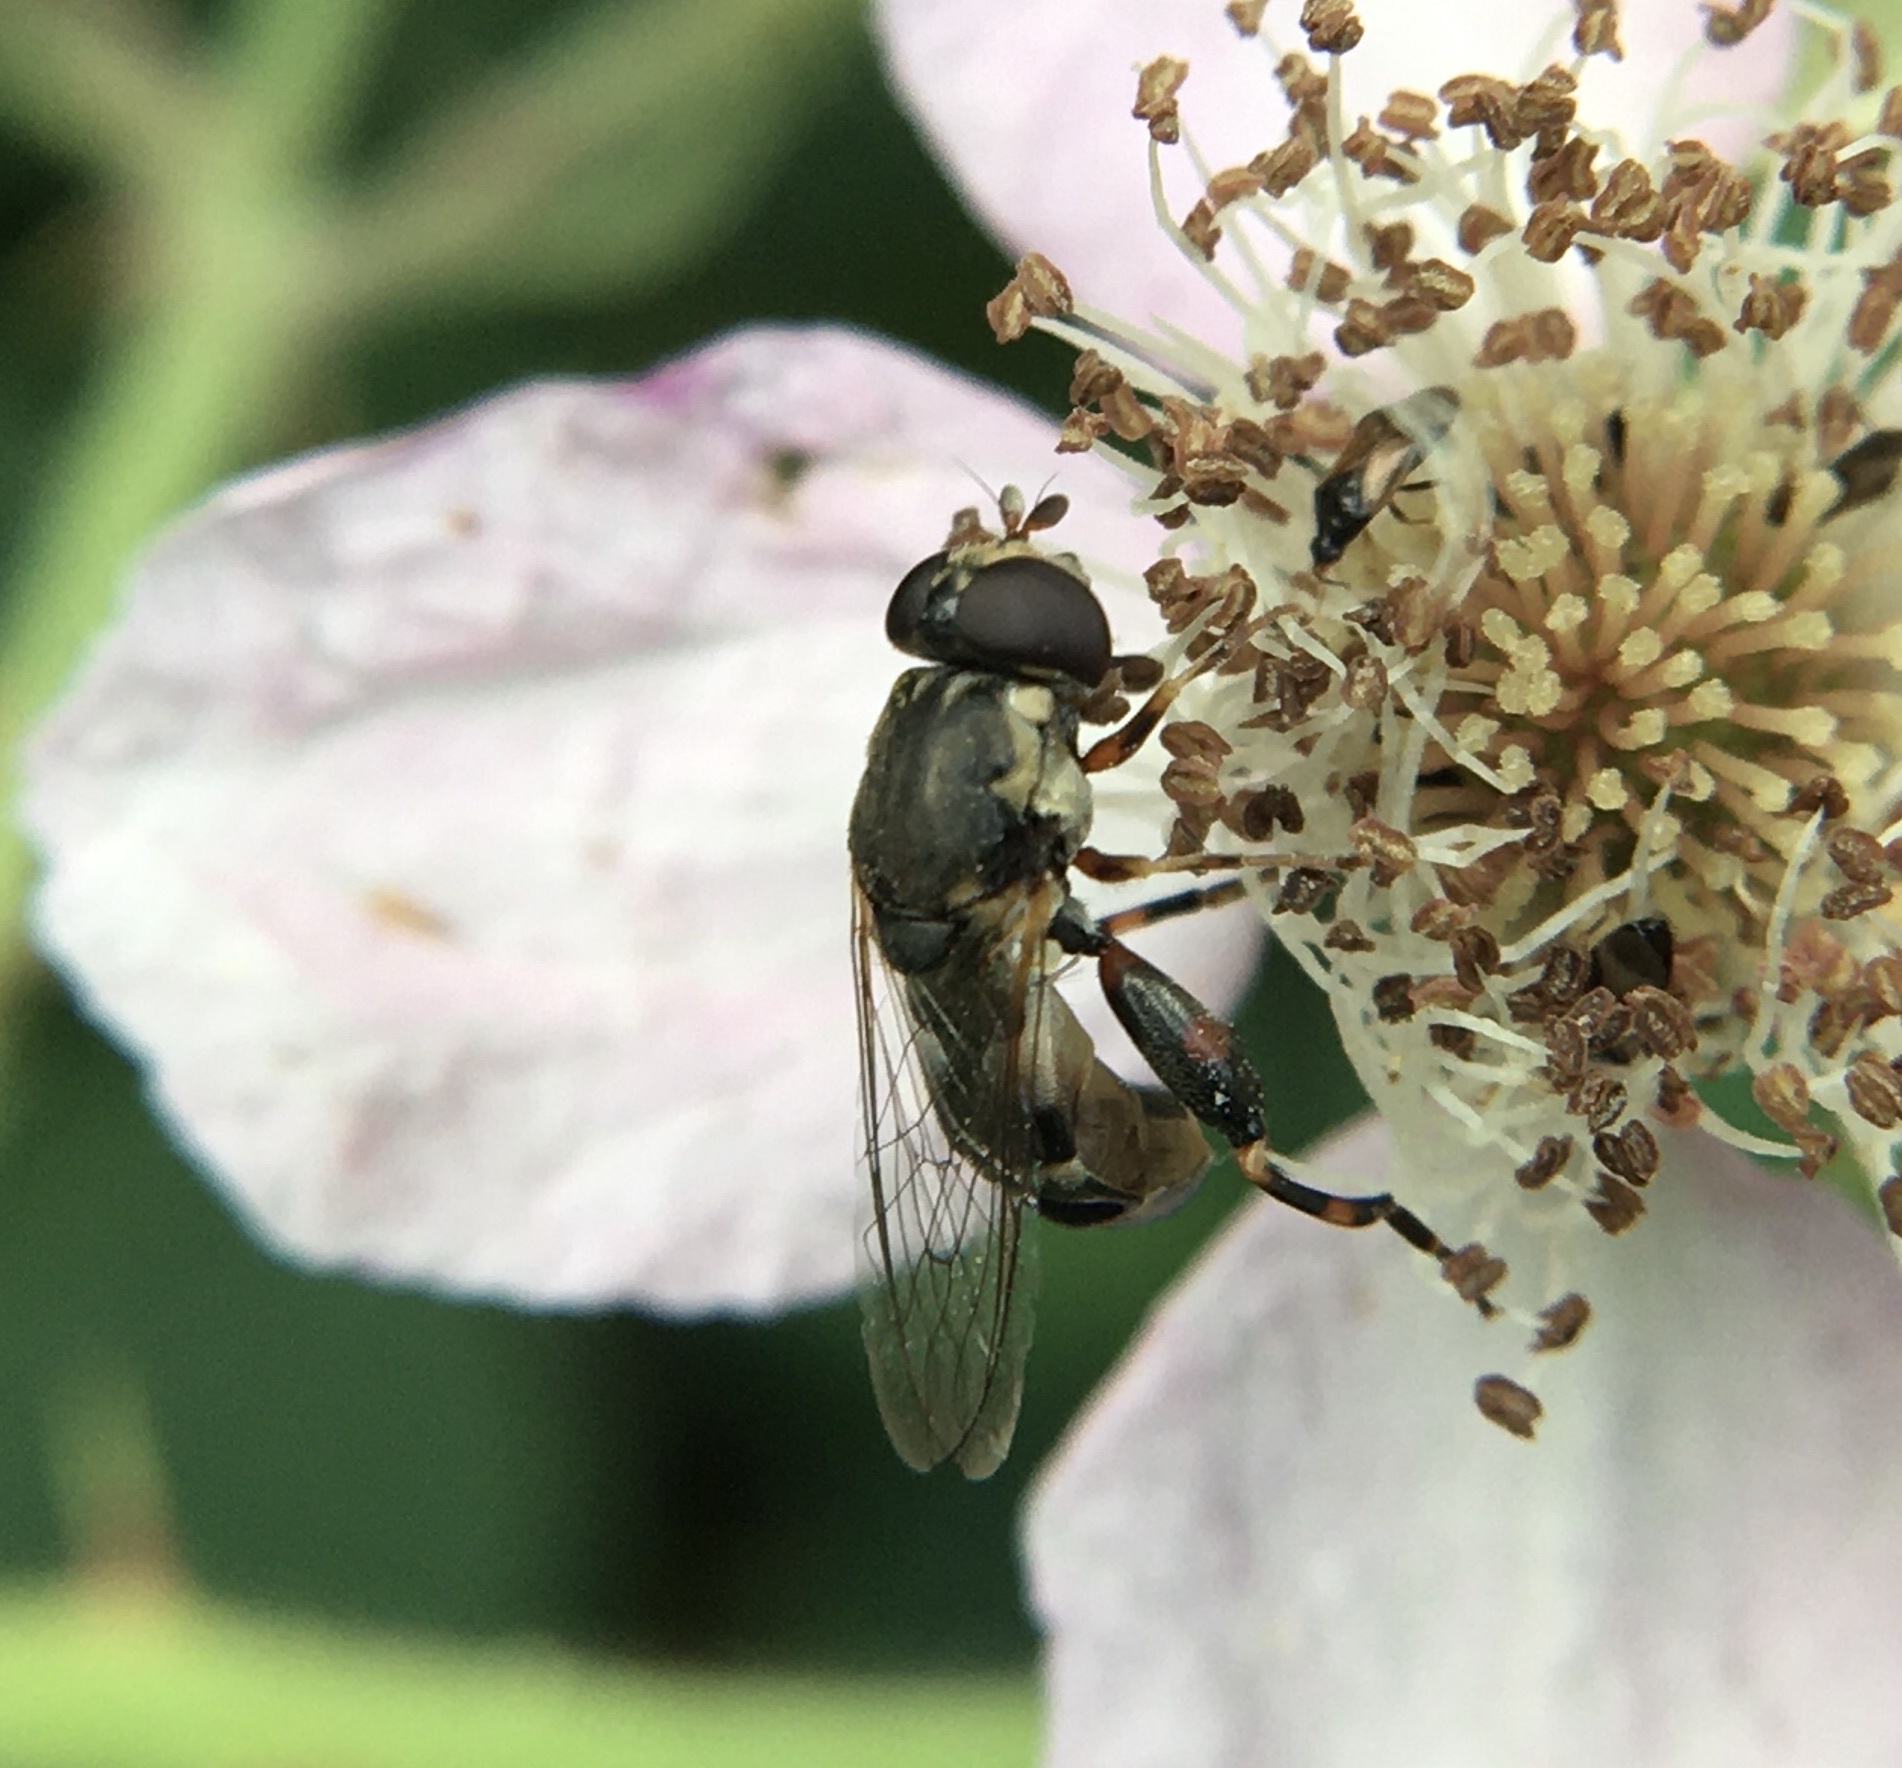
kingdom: Animalia
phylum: Arthropoda
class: Insecta
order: Diptera
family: Syrphidae
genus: Syritta
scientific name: Syritta pipiens
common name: Hover fly
